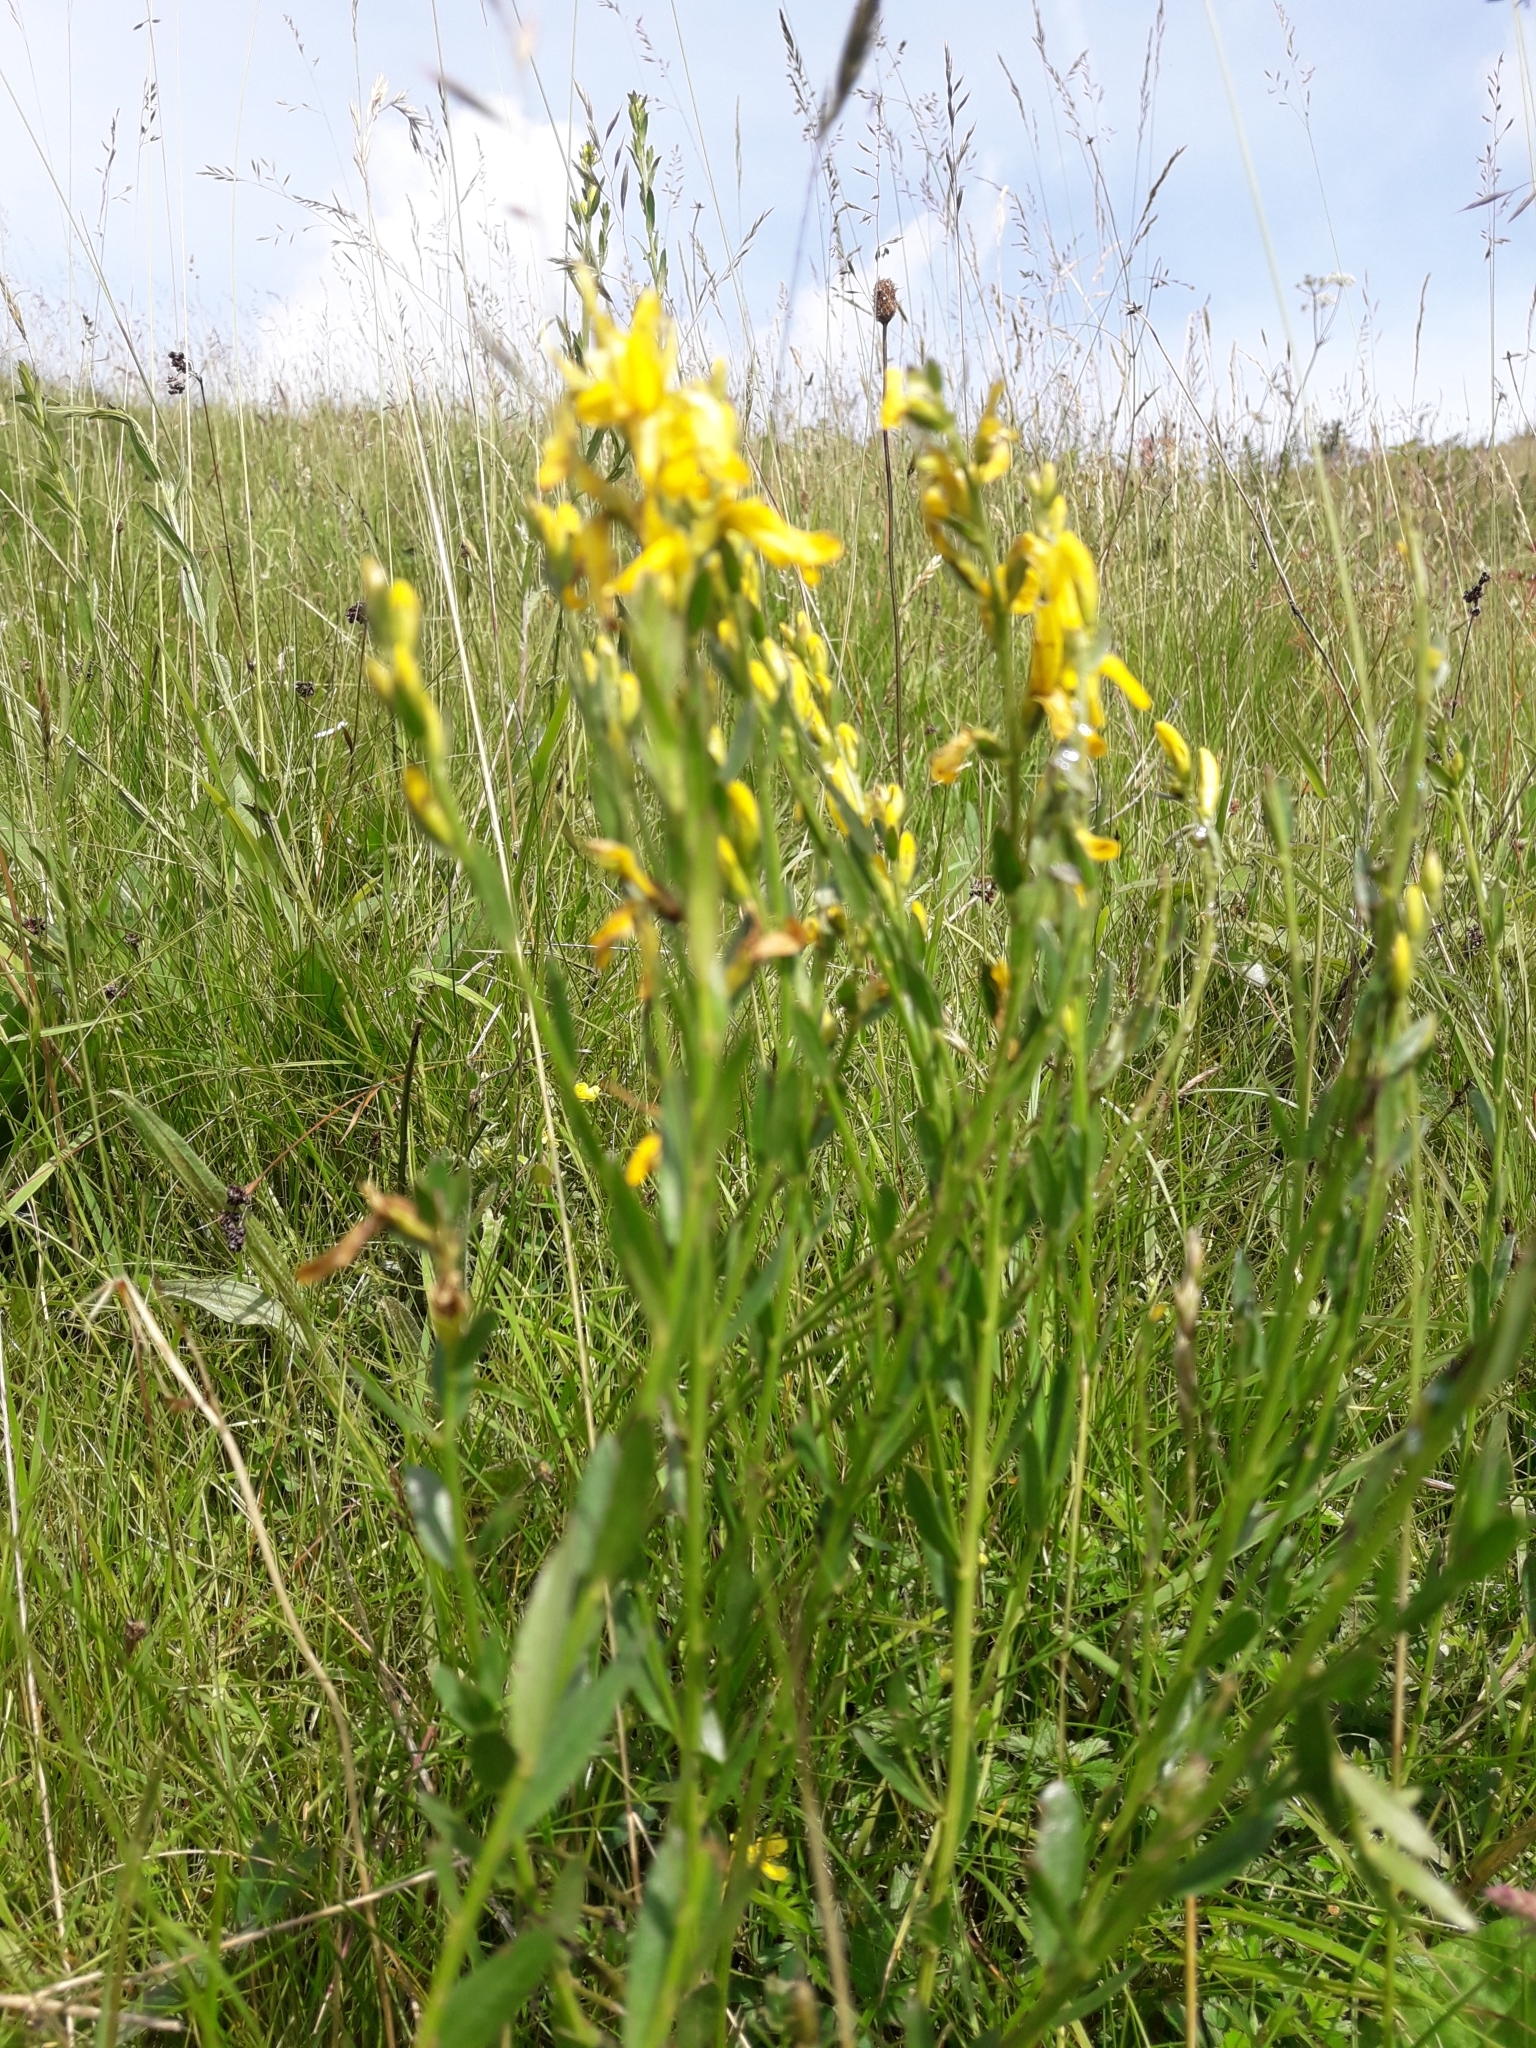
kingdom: Plantae
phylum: Tracheophyta
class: Magnoliopsida
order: Fabales
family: Fabaceae
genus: Genista
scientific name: Genista tinctoria
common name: Dyer's greenweed
